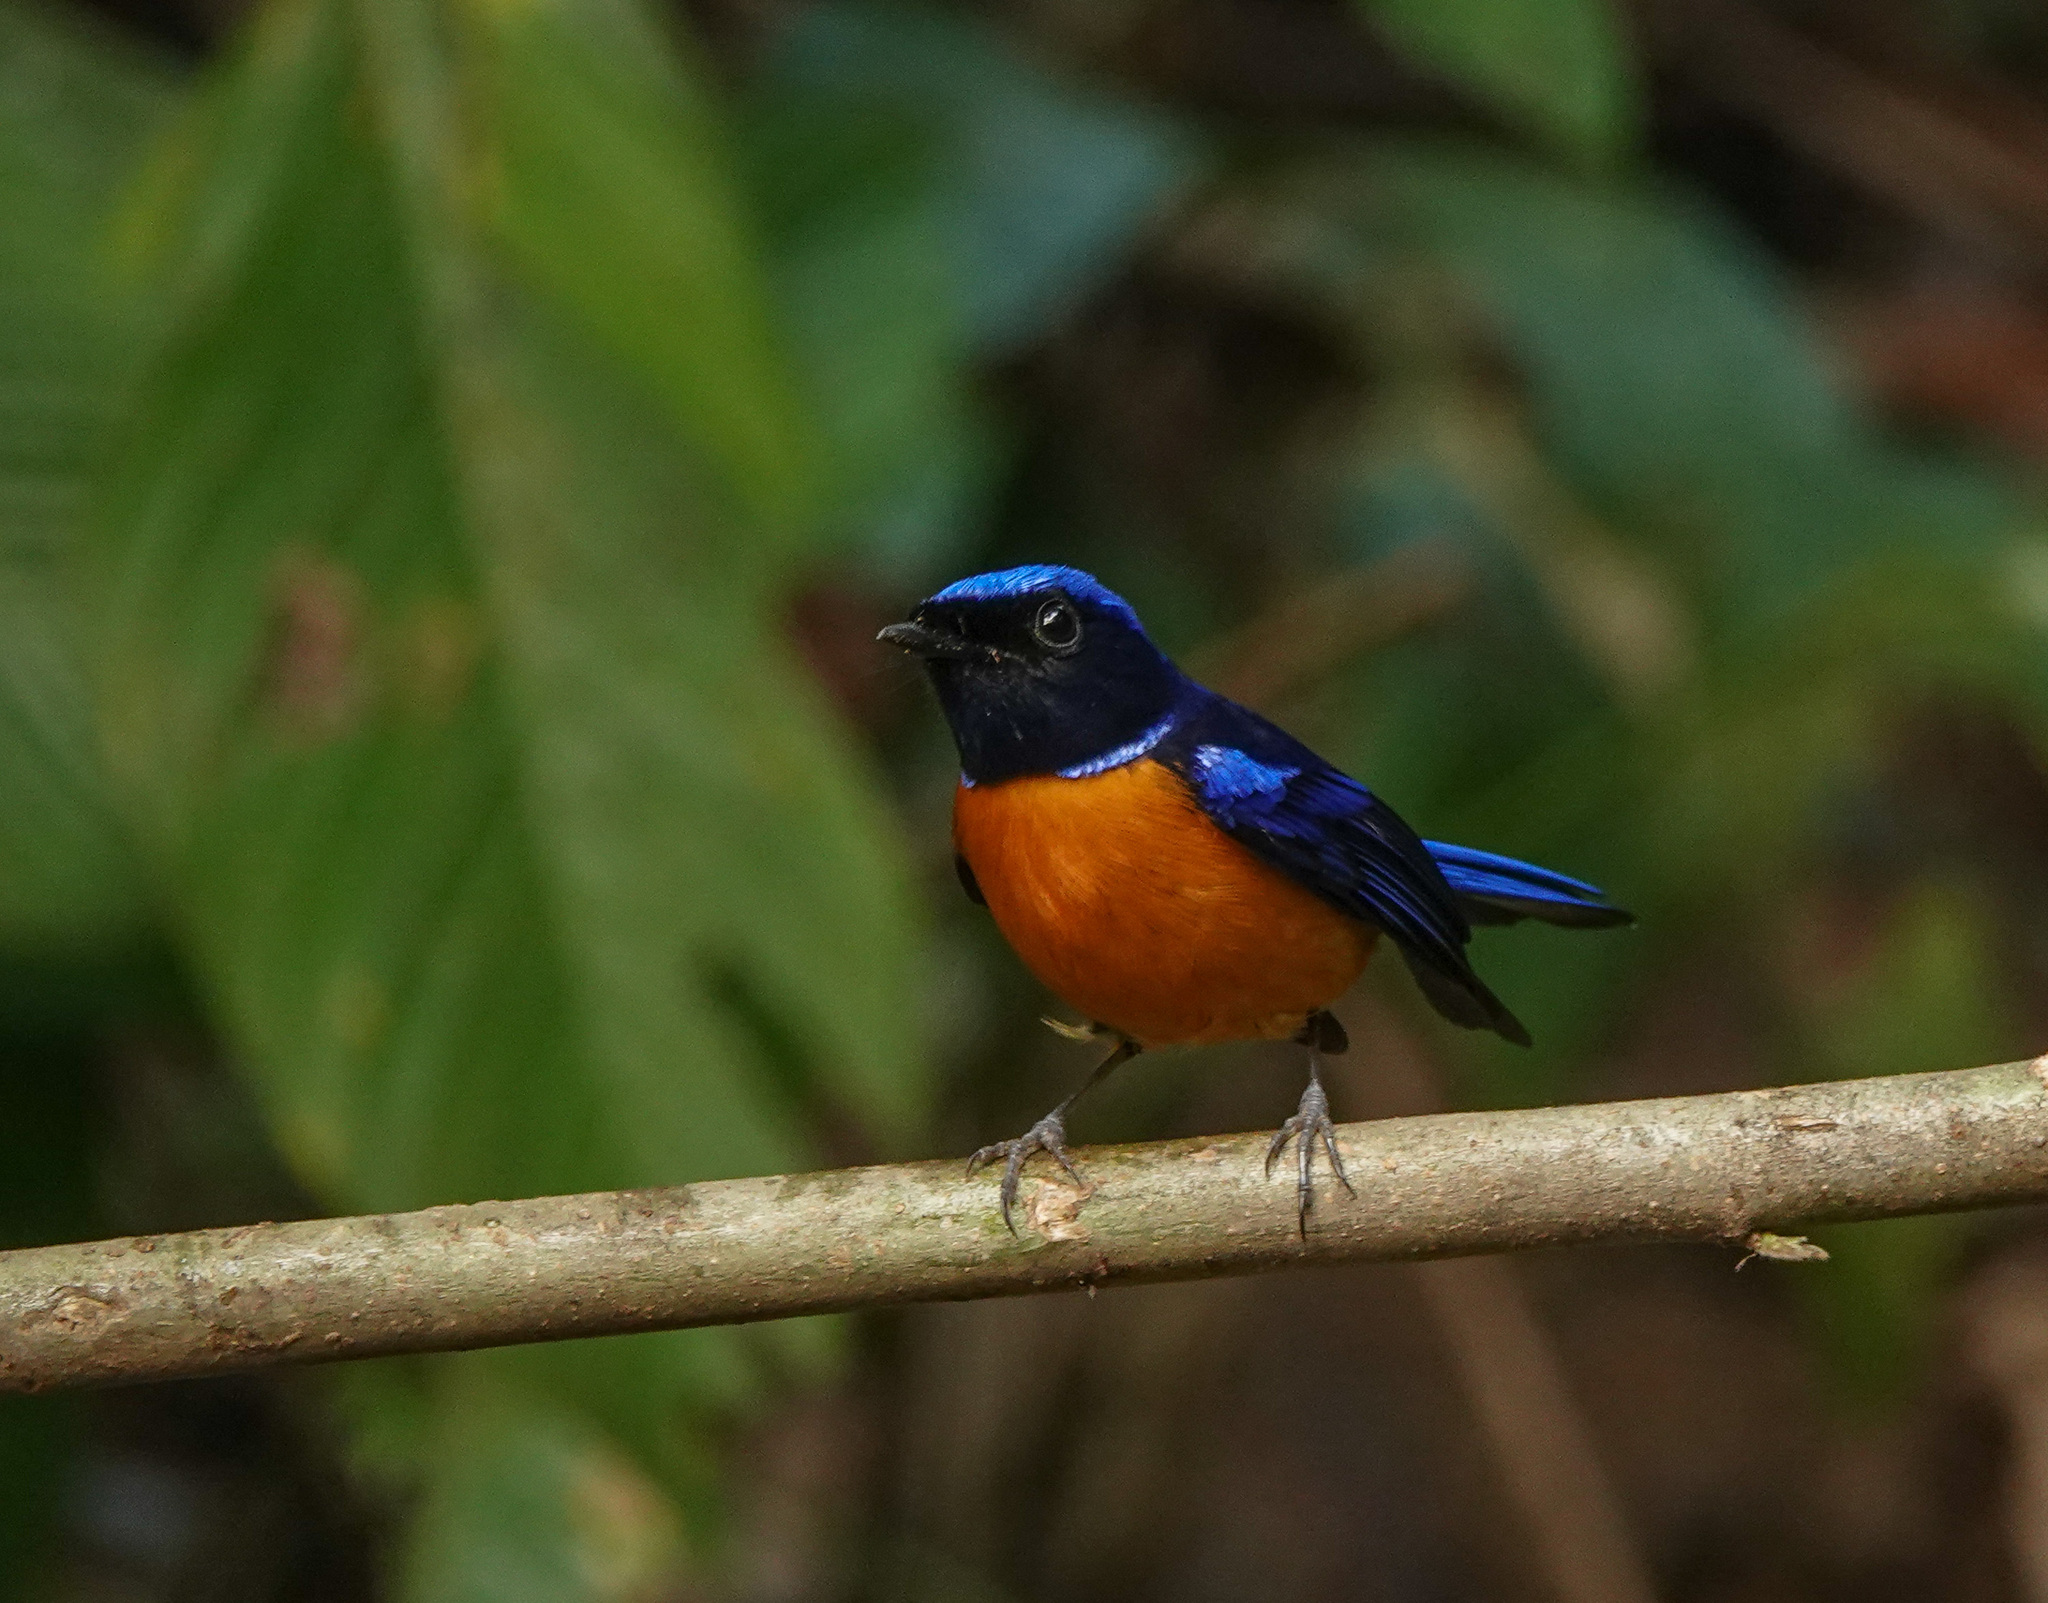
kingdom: Animalia
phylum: Chordata
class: Aves
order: Passeriformes
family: Muscicapidae
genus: Niltava
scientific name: Niltava sundara
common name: Rufous-bellied niltava
